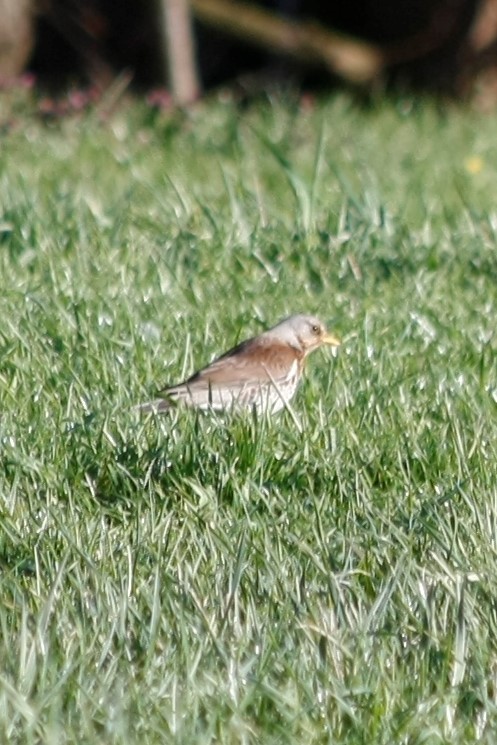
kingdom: Animalia
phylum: Chordata
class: Aves
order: Passeriformes
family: Turdidae
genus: Turdus
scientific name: Turdus pilaris
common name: Fieldfare
